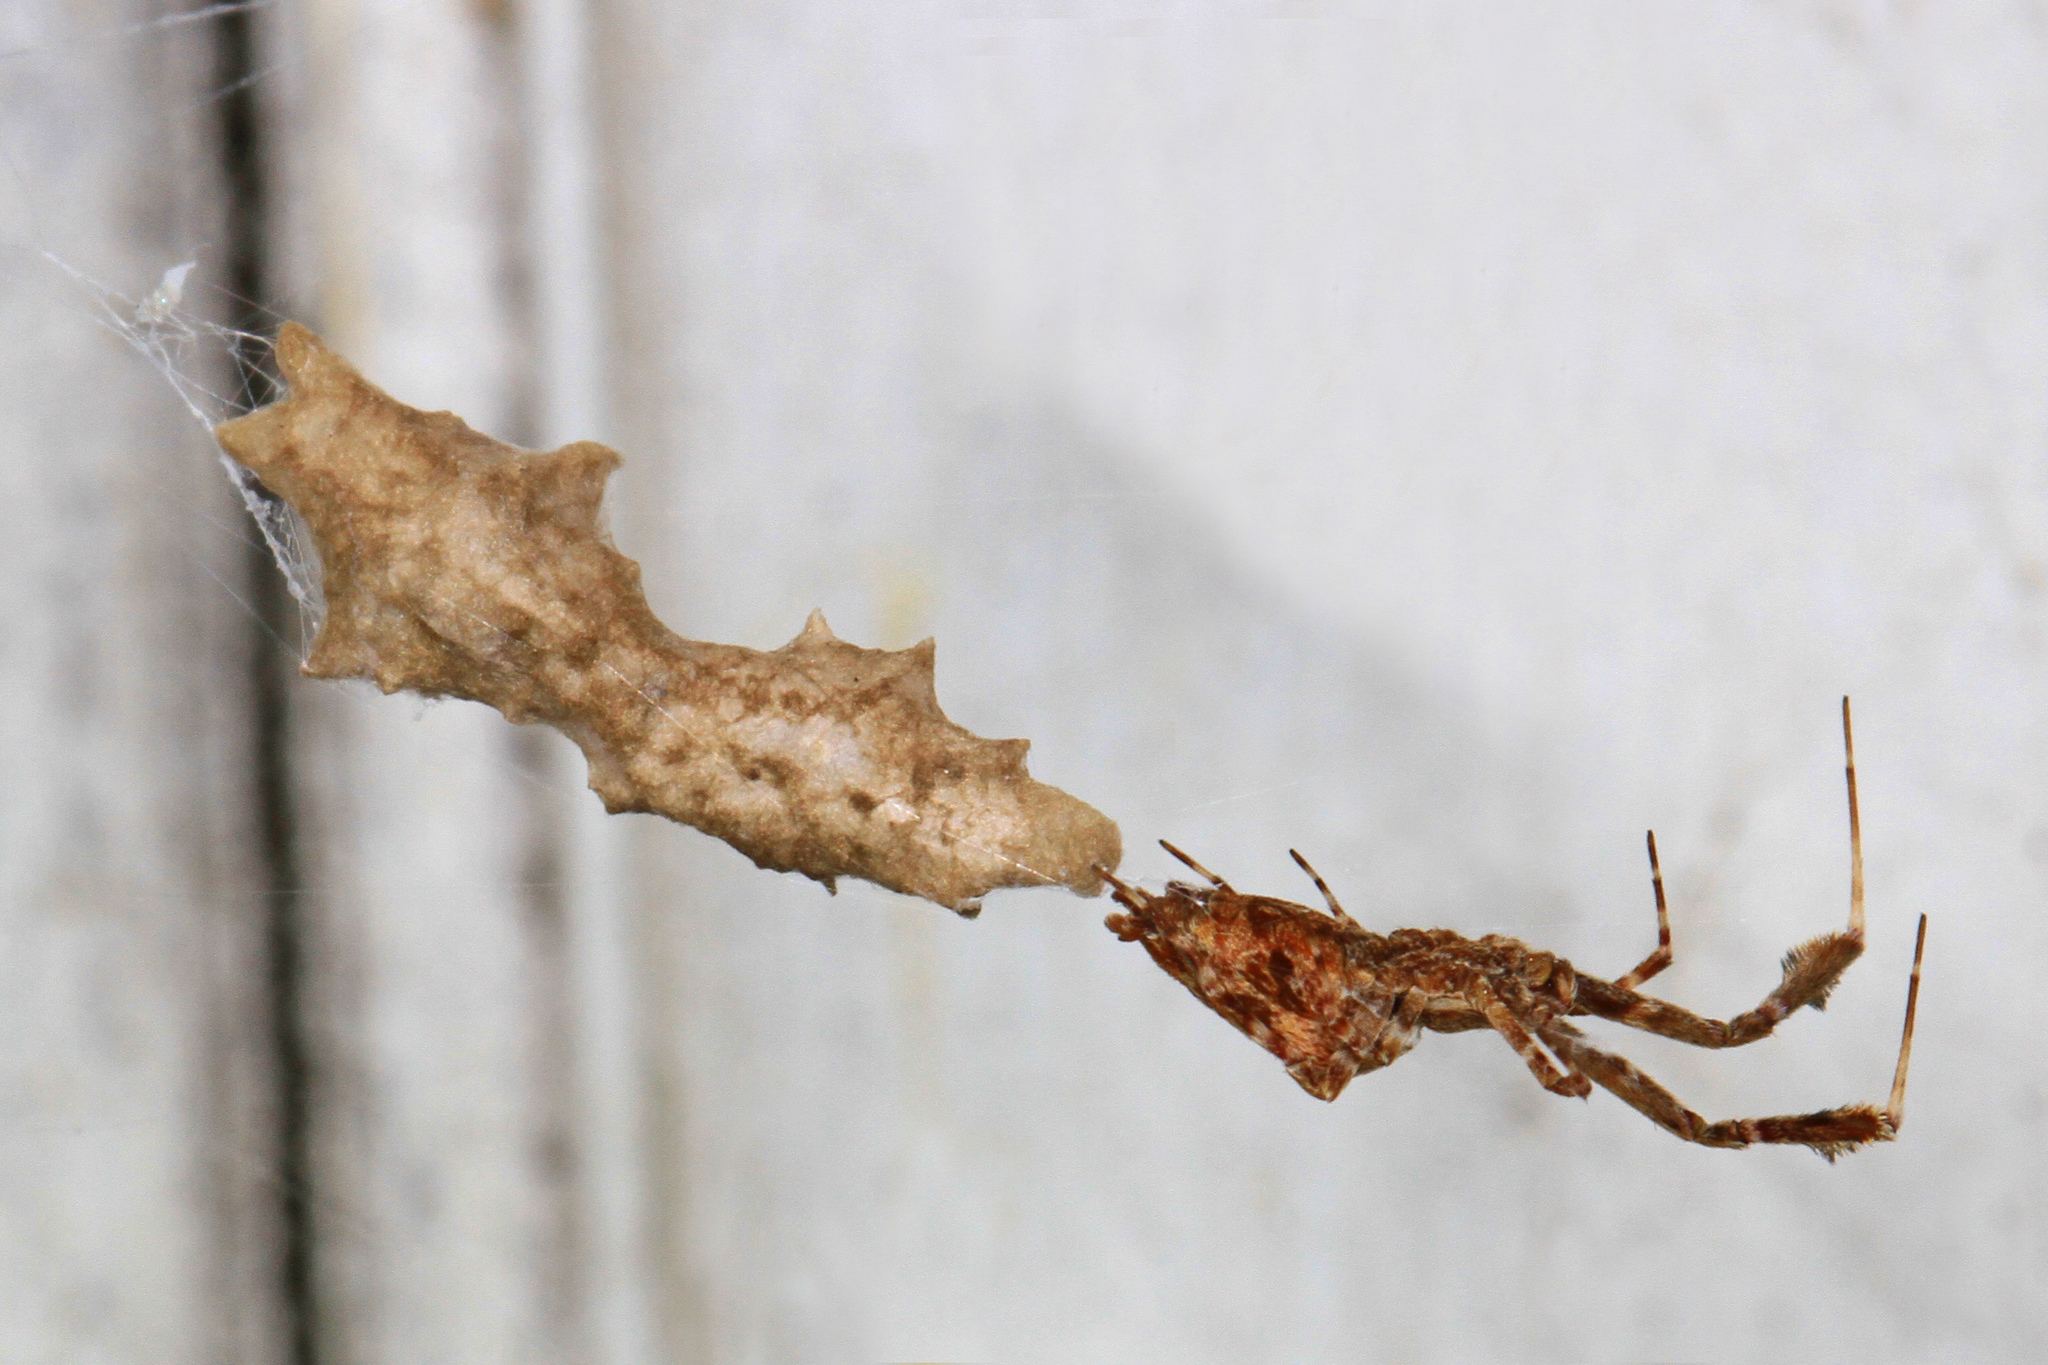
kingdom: Animalia
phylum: Arthropoda
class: Arachnida
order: Araneae
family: Uloboridae
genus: Uloborus
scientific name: Uloborus glomosus
